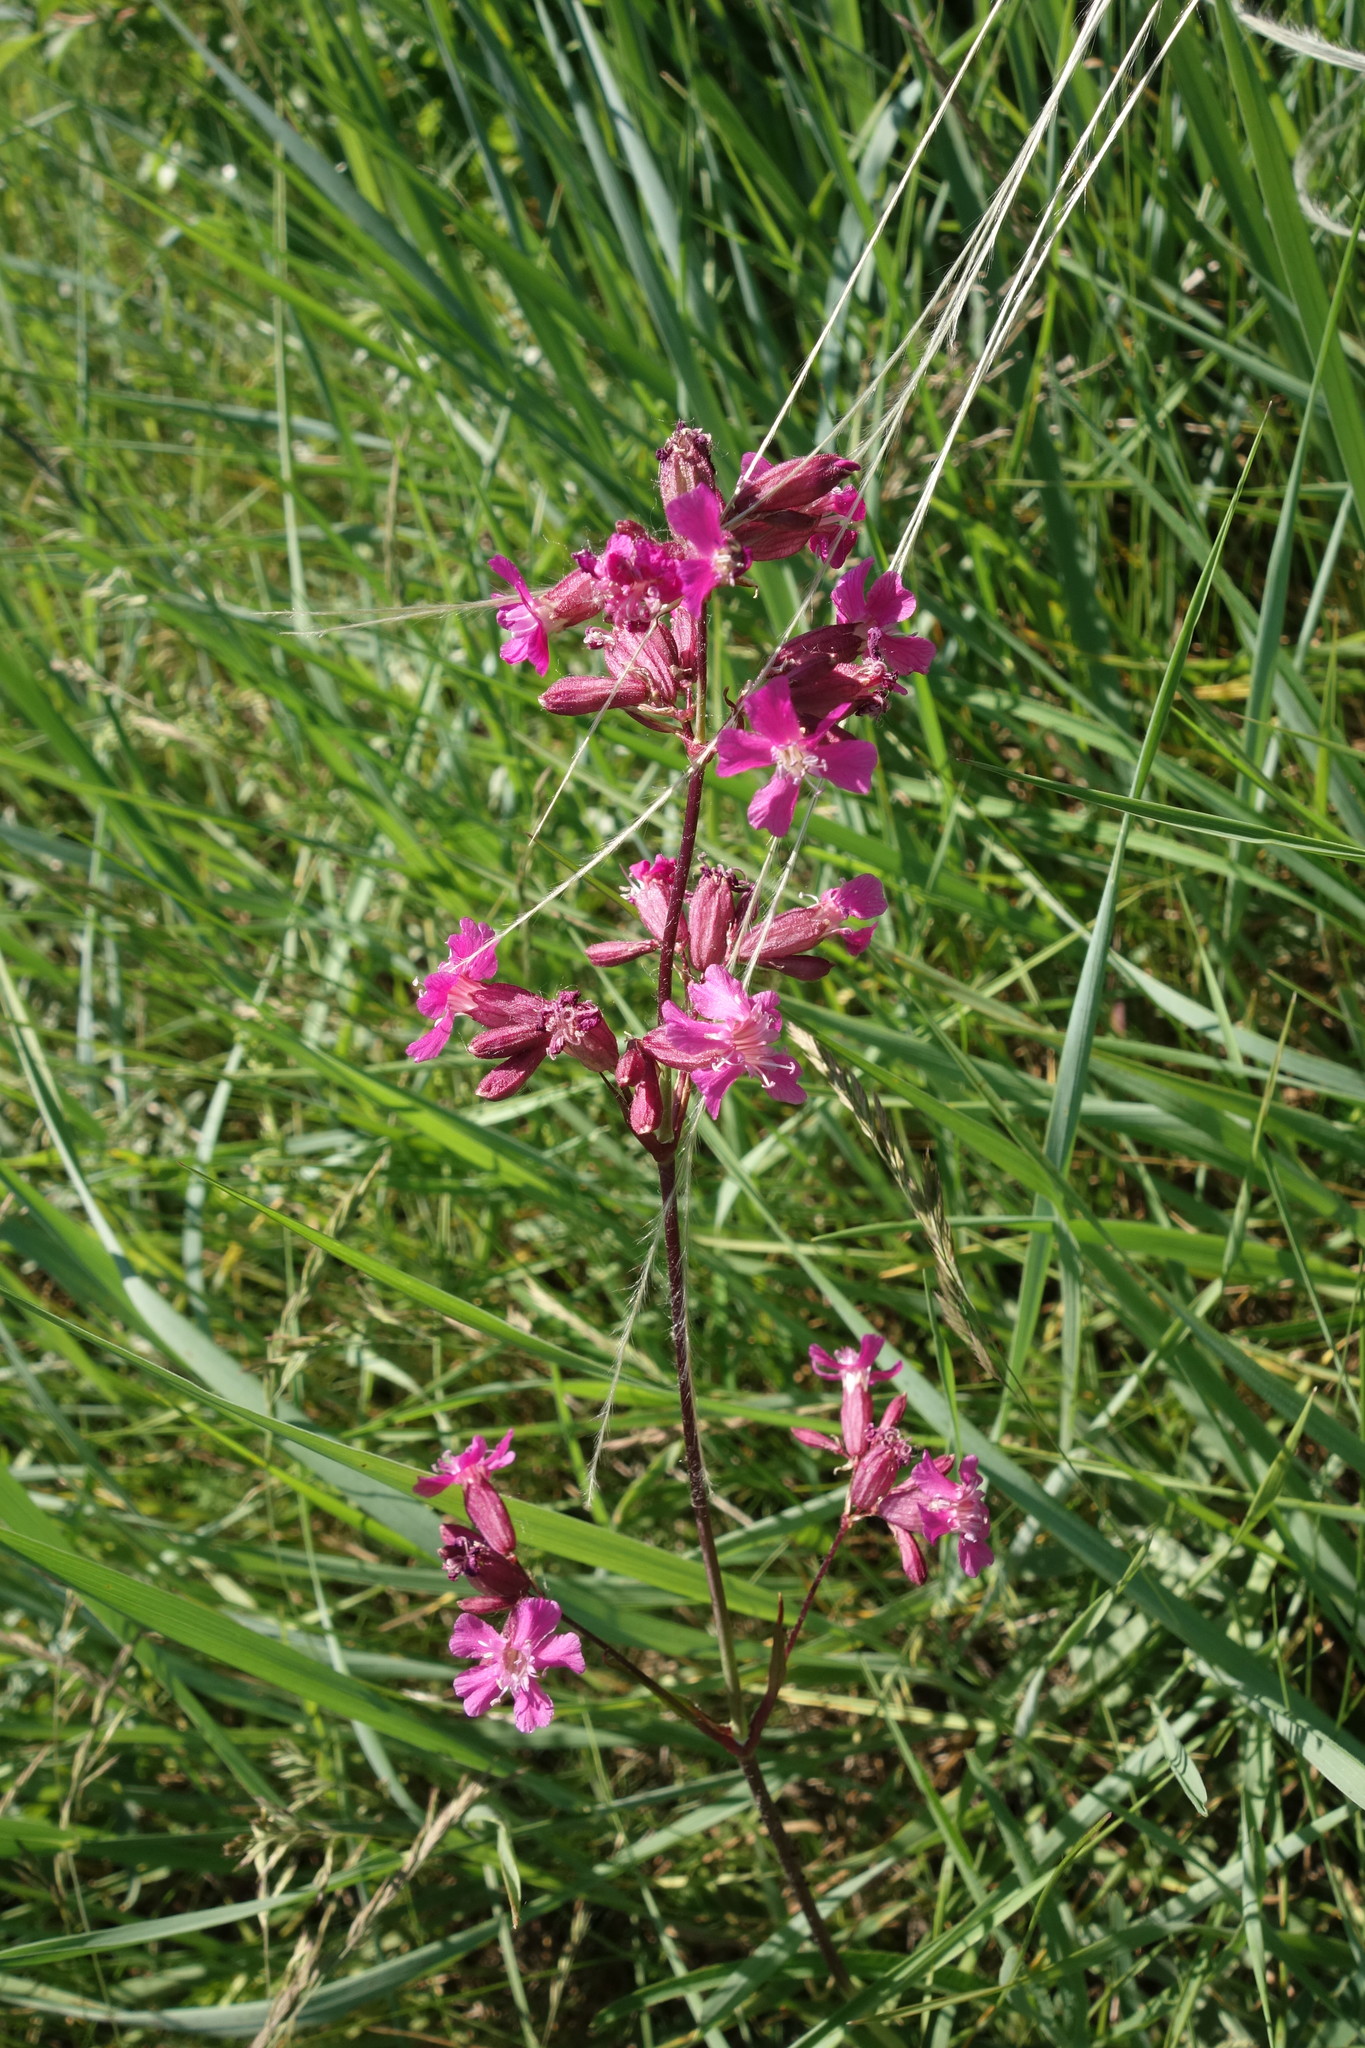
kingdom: Plantae
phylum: Tracheophyta
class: Magnoliopsida
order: Caryophyllales
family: Caryophyllaceae
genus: Viscaria
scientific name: Viscaria vulgaris
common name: Clammy campion
